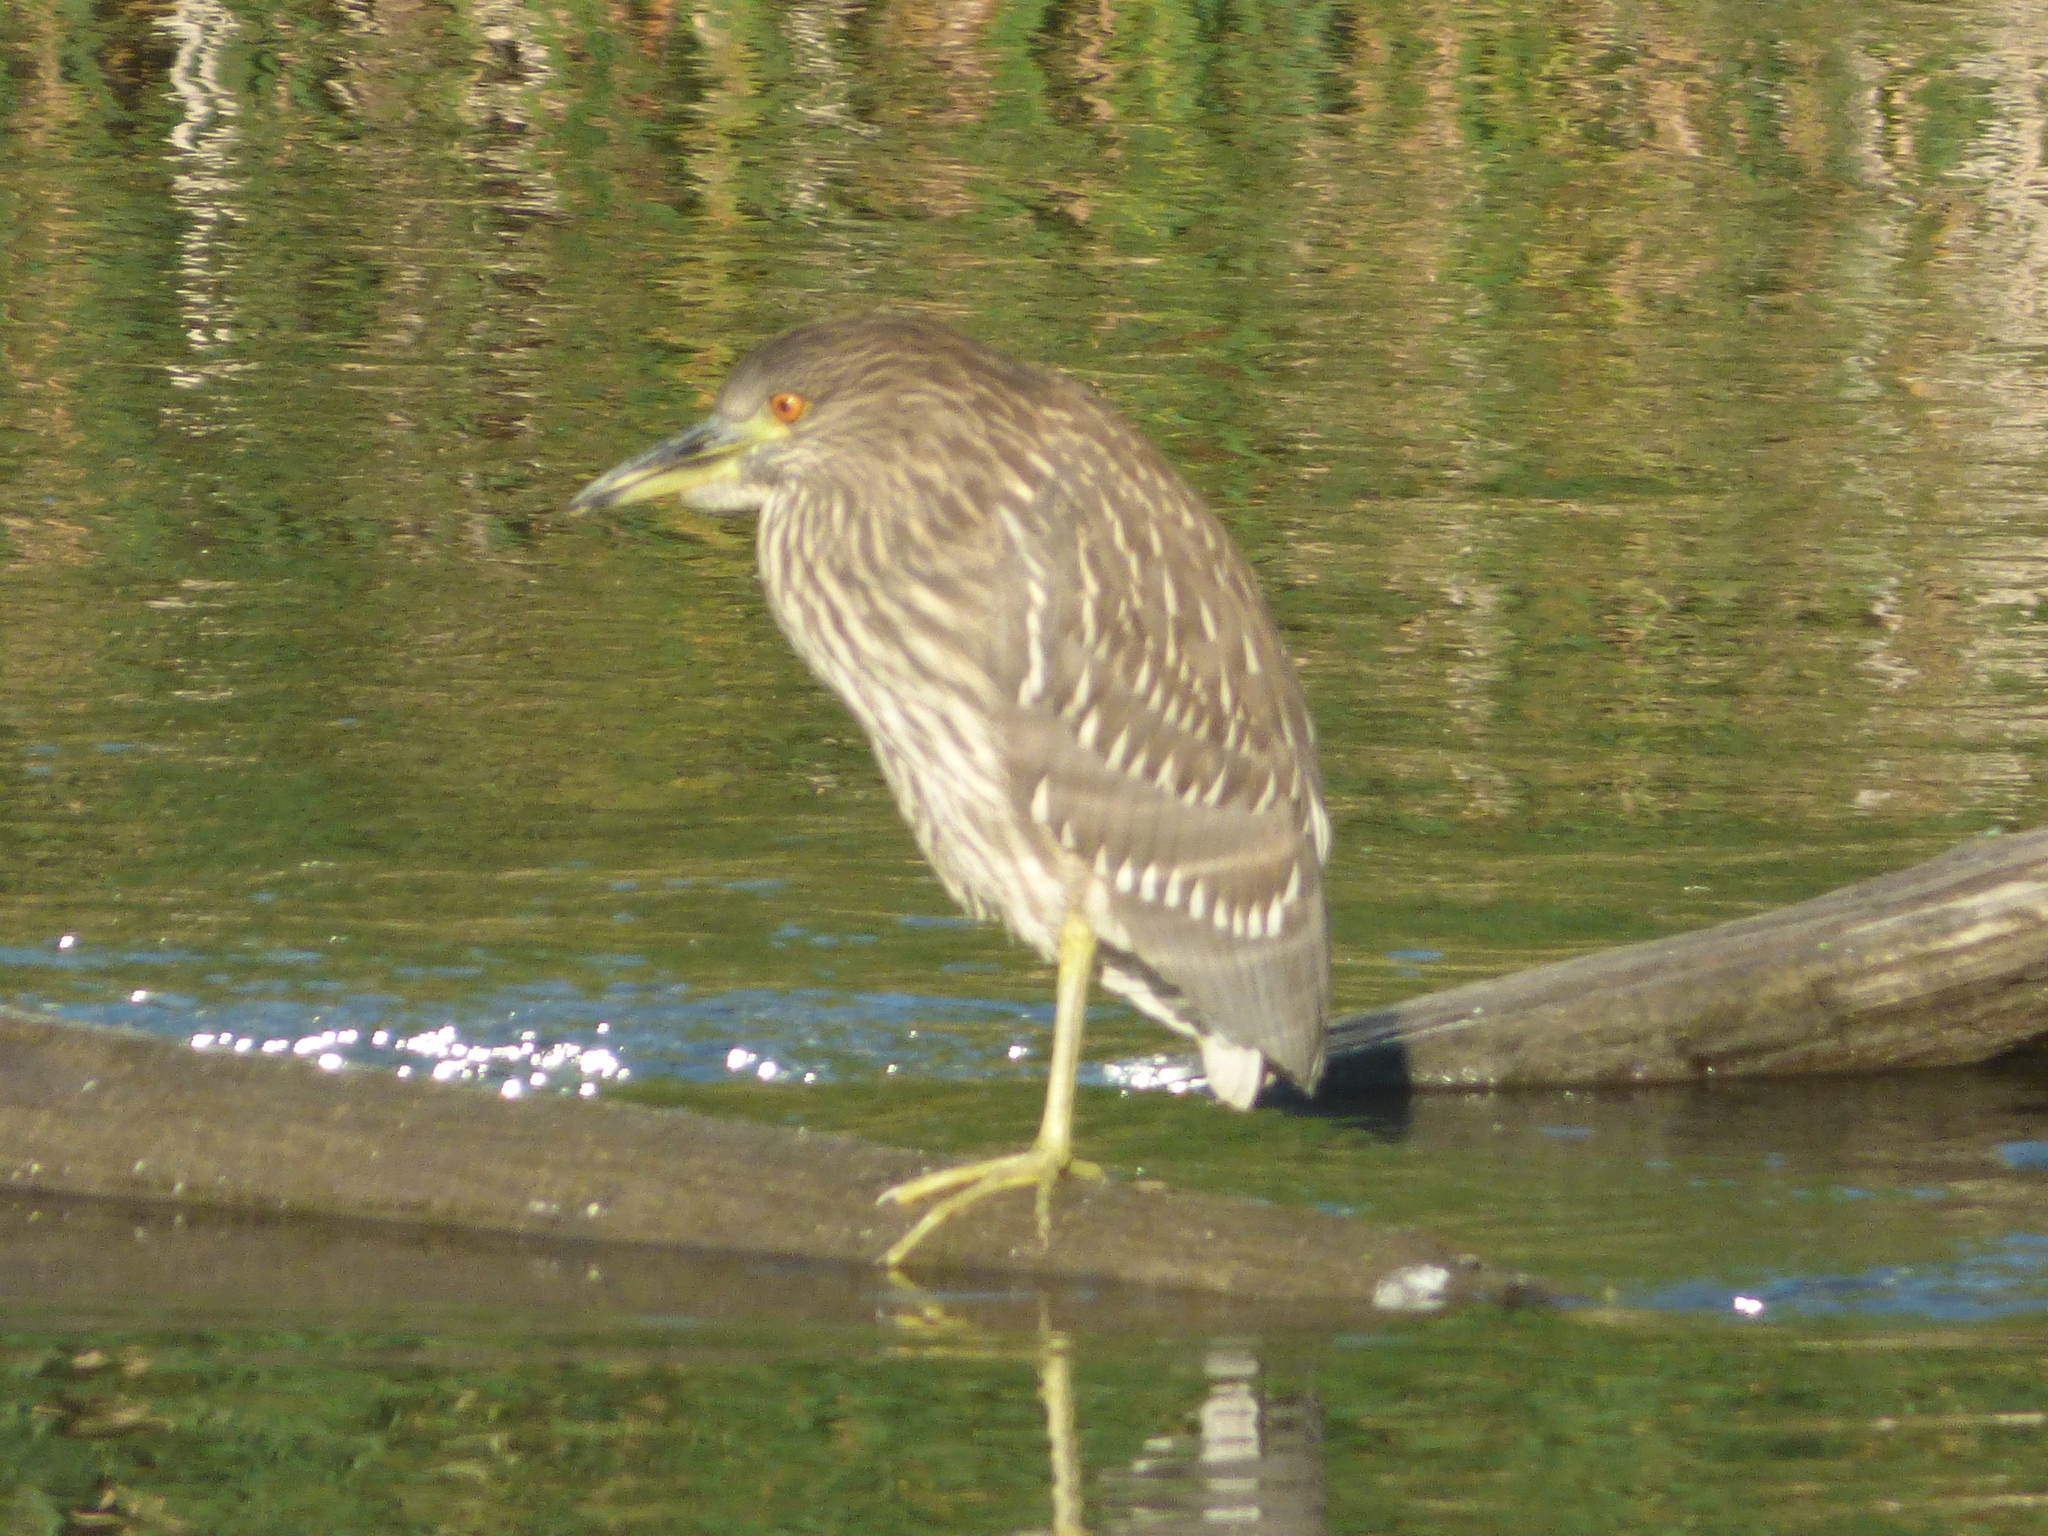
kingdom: Animalia
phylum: Chordata
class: Aves
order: Pelecaniformes
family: Ardeidae
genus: Nycticorax
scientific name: Nycticorax nycticorax
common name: Black-crowned night heron
